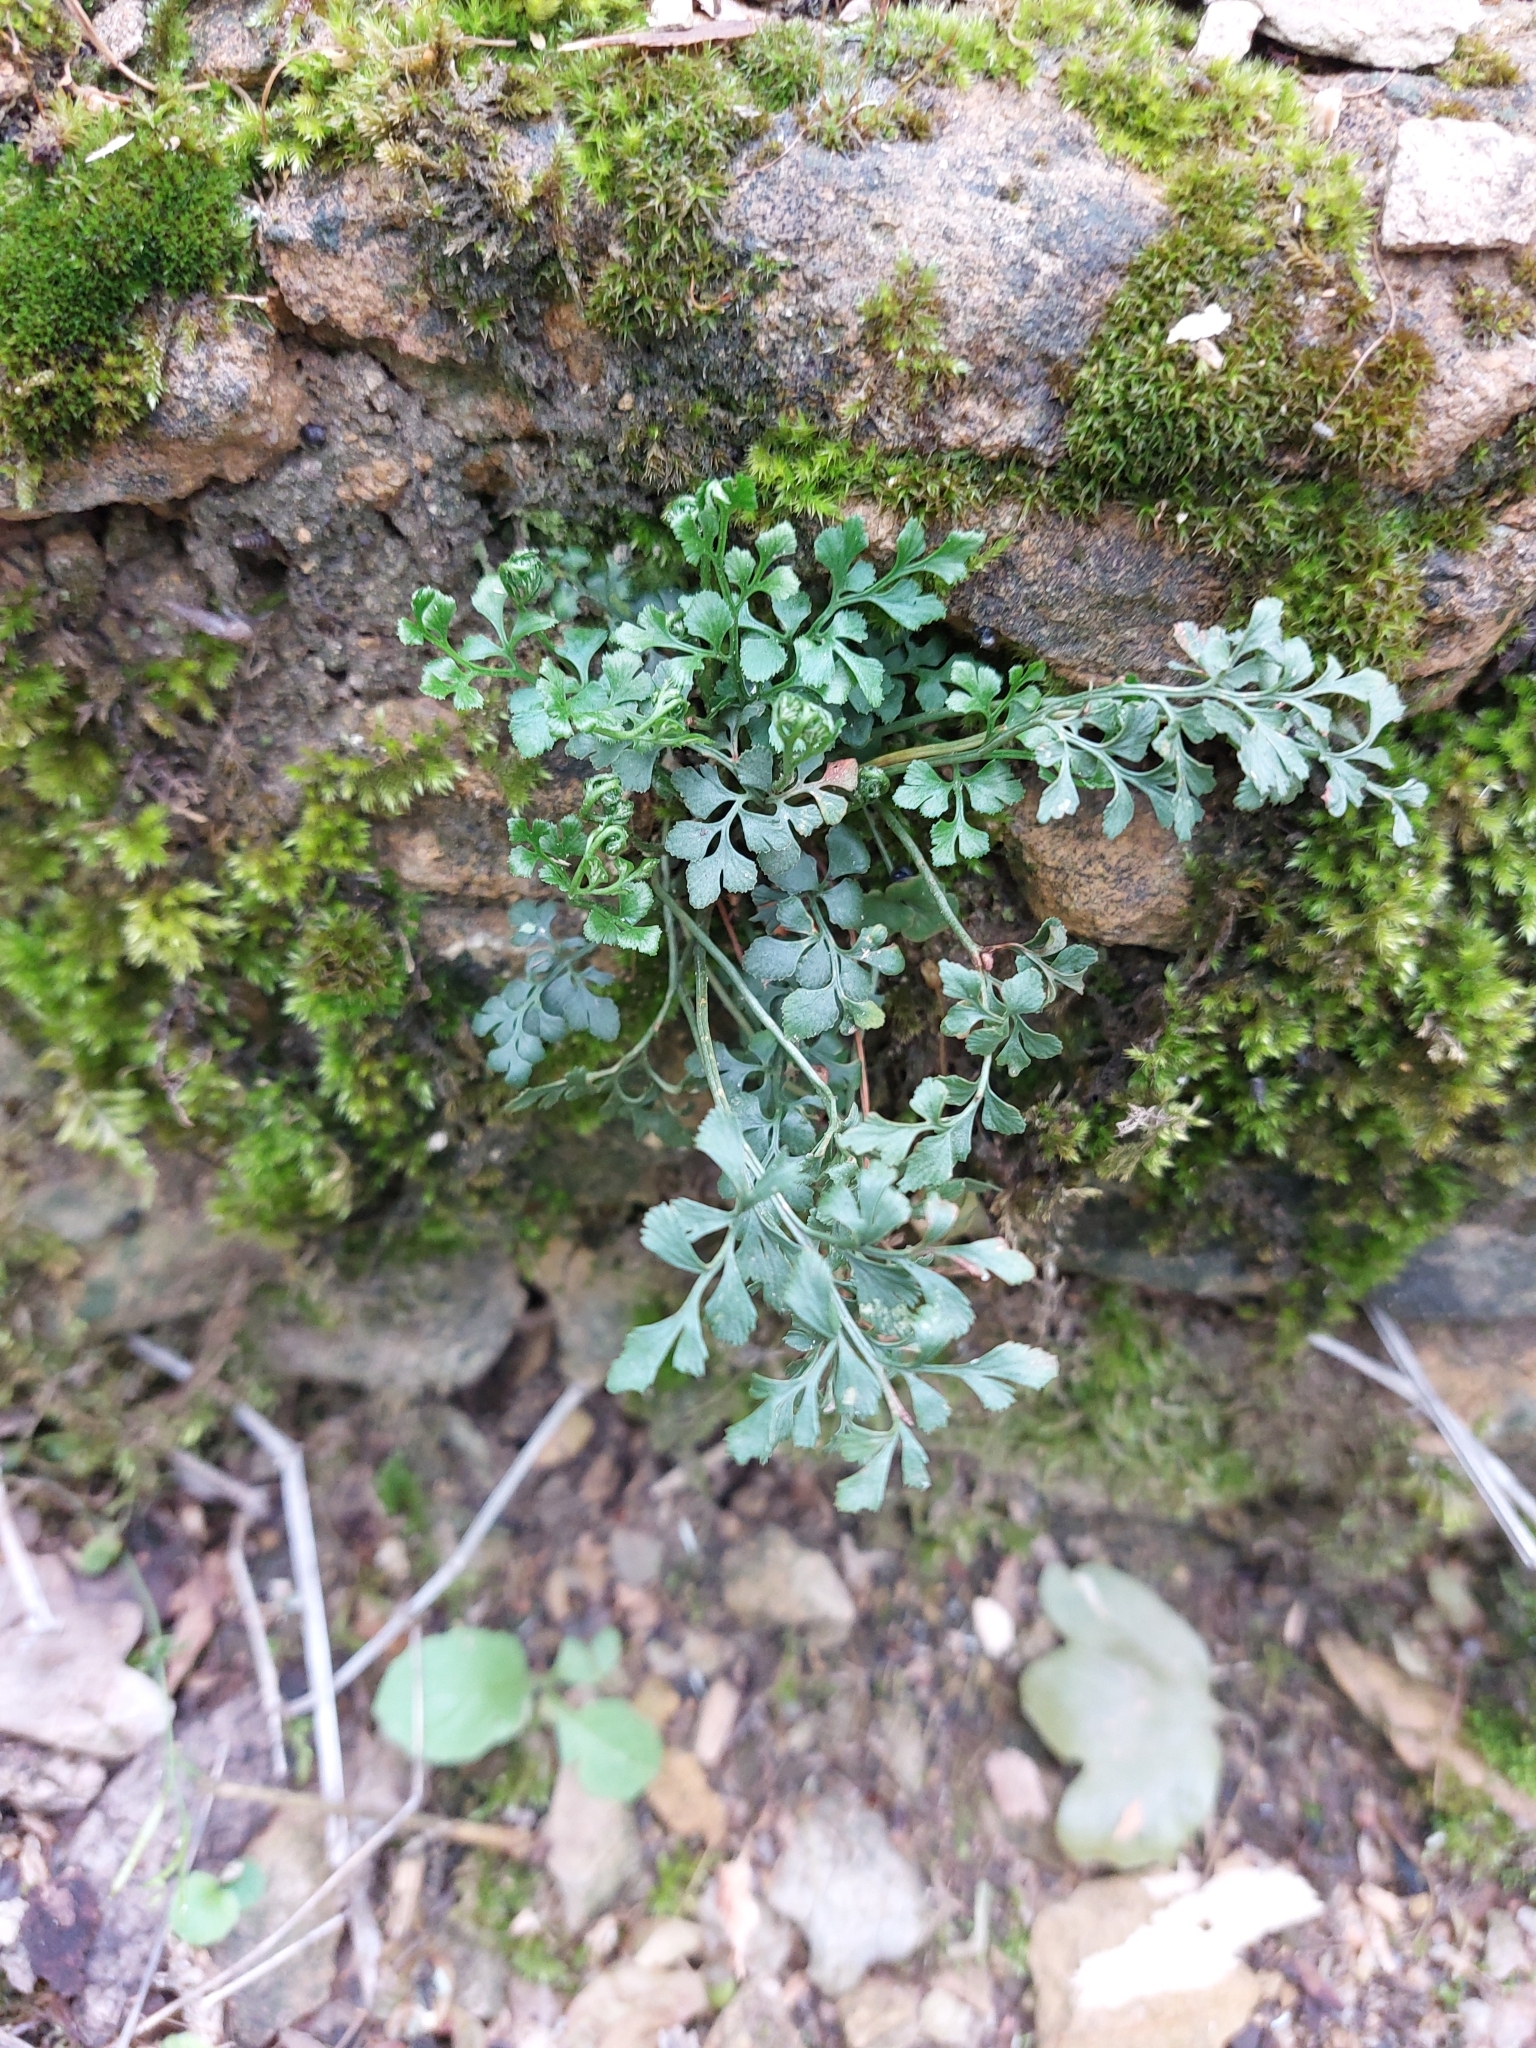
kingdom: Plantae
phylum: Tracheophyta
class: Polypodiopsida
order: Polypodiales
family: Aspleniaceae
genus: Asplenium
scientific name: Asplenium ruta-muraria
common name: Wall-rue
